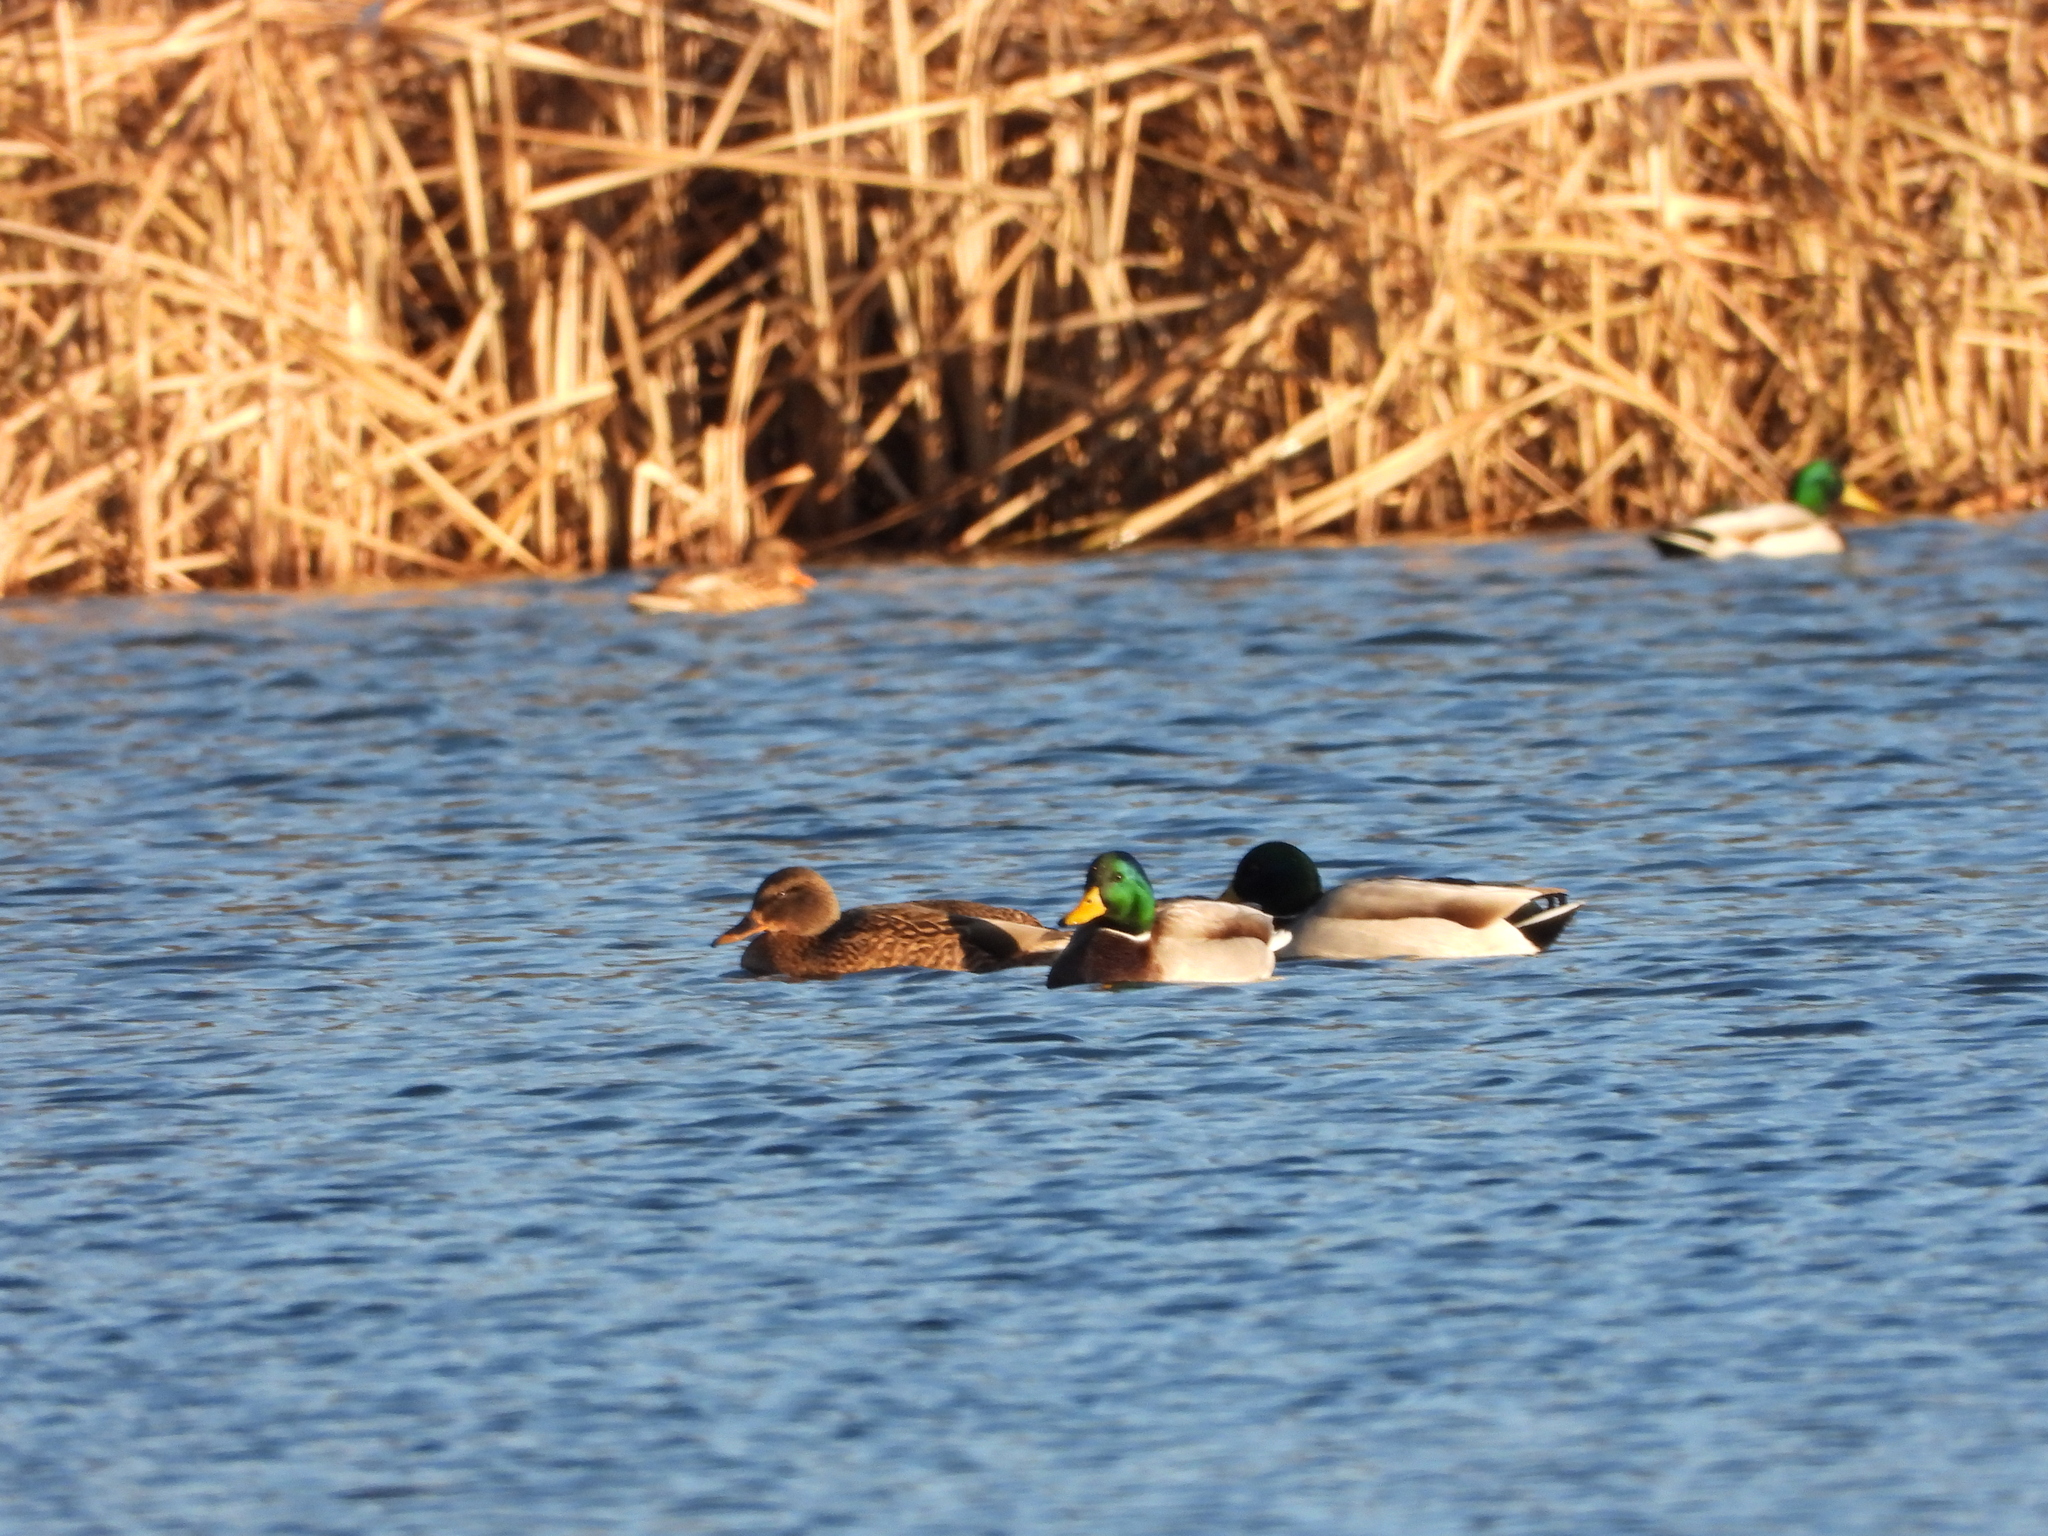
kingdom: Animalia
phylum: Chordata
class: Aves
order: Anseriformes
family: Anatidae
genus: Anas
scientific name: Anas platyrhynchos
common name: Mallard
